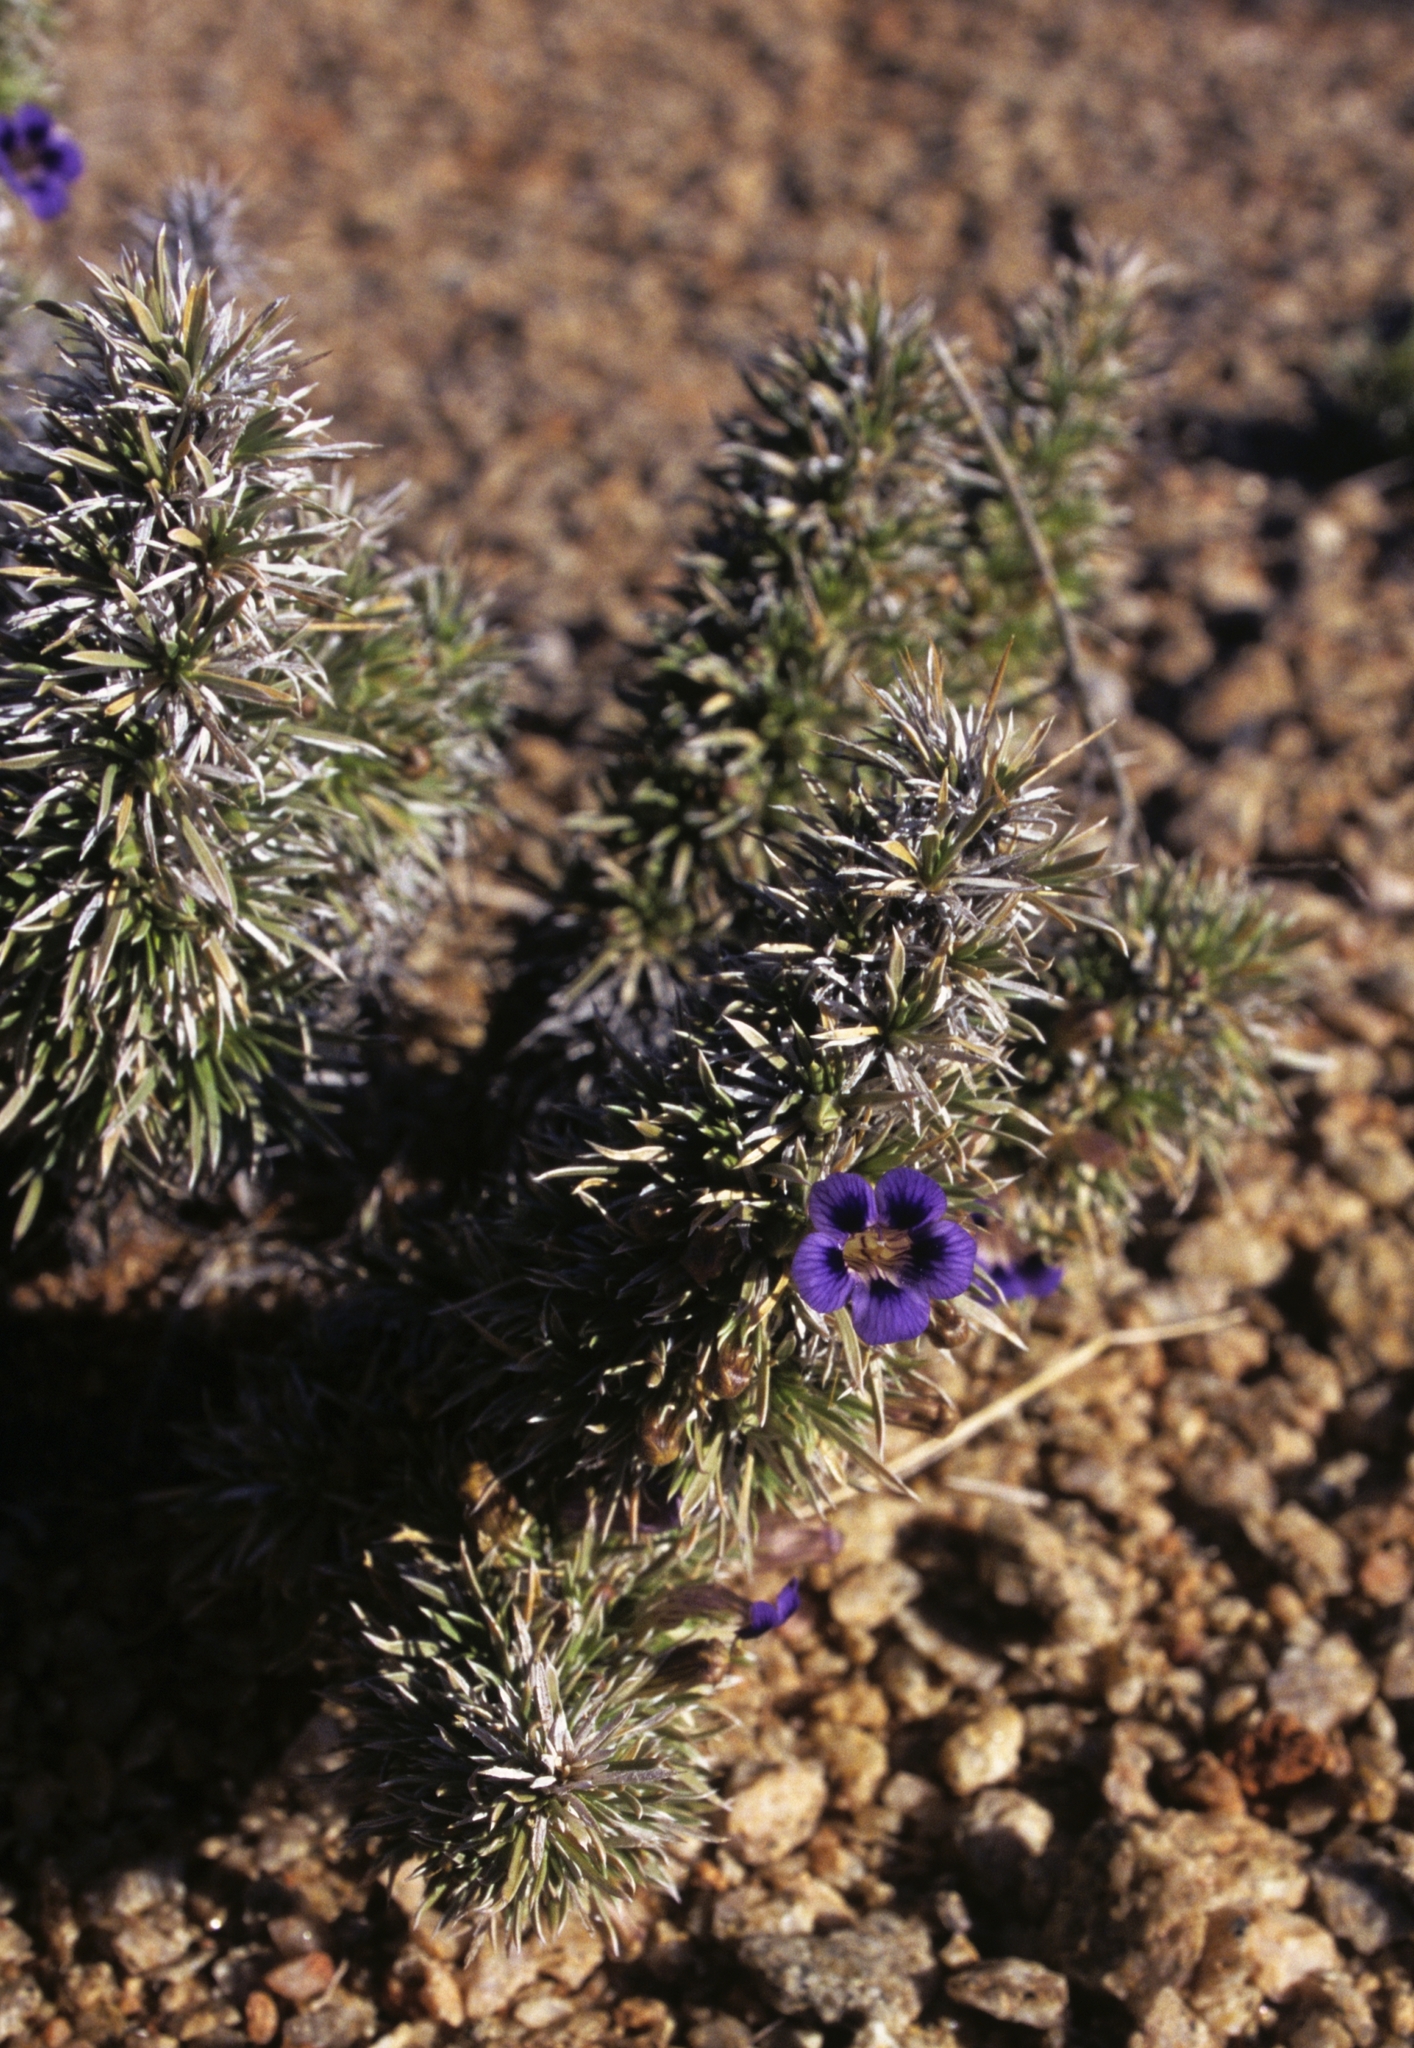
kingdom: Plantae
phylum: Tracheophyta
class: Magnoliopsida
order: Lamiales
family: Scrophulariaceae
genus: Aptosimum
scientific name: Aptosimum spinescens
